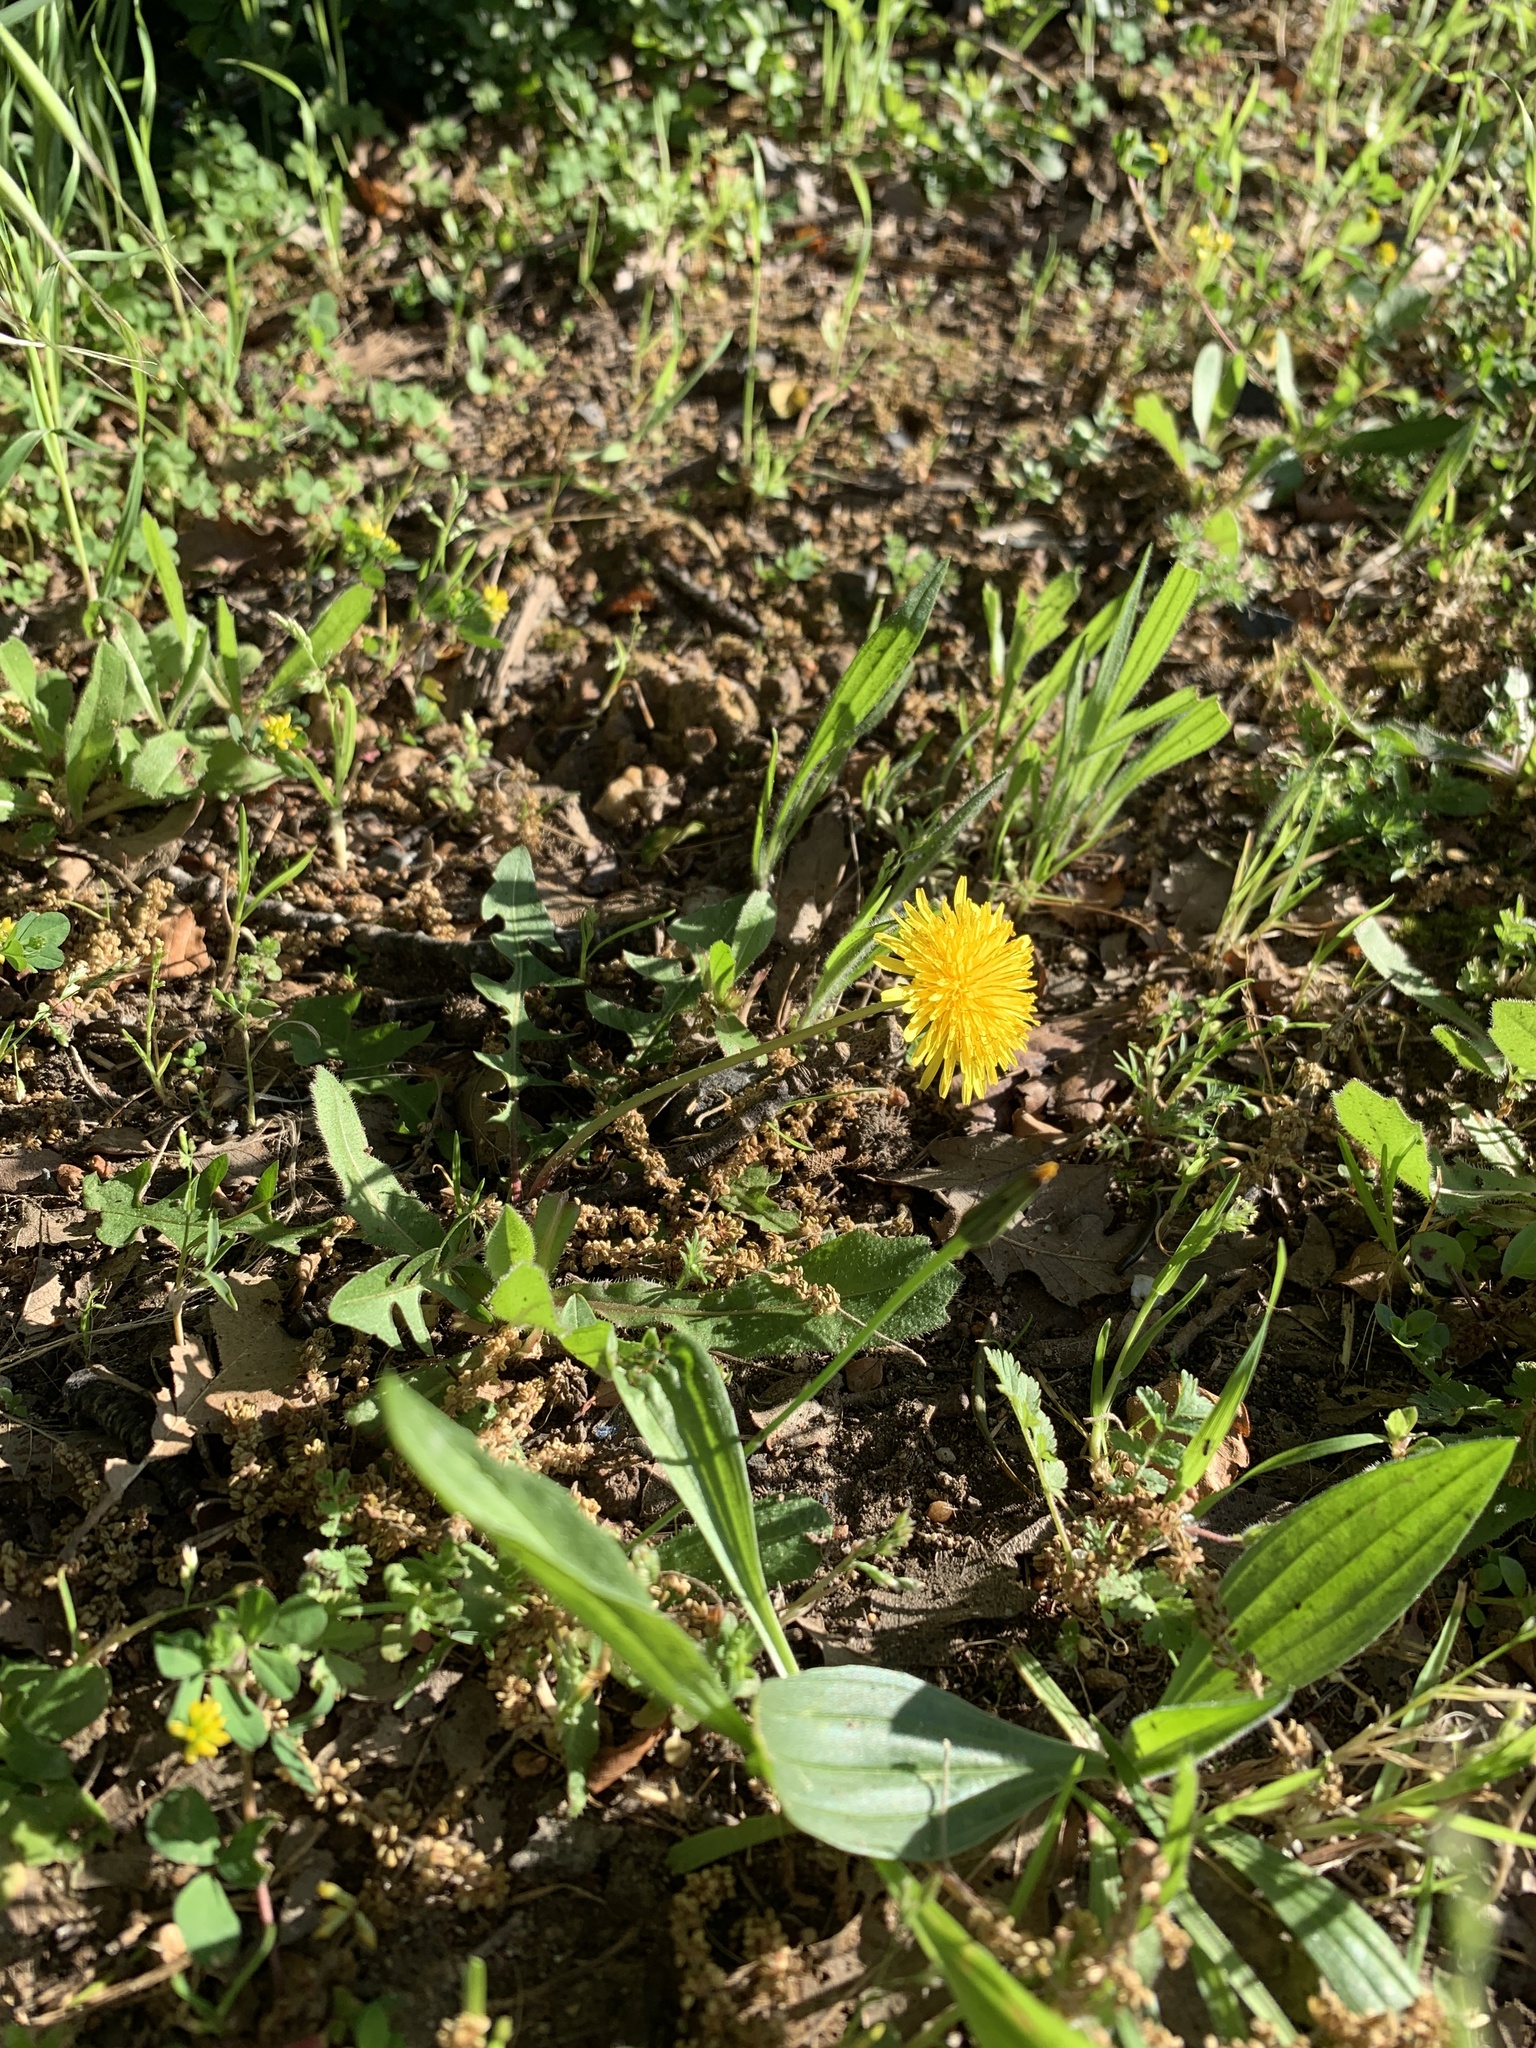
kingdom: Plantae
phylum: Tracheophyta
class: Magnoliopsida
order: Asterales
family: Asteraceae
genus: Taraxacum
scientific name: Taraxacum officinale
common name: Common dandelion
